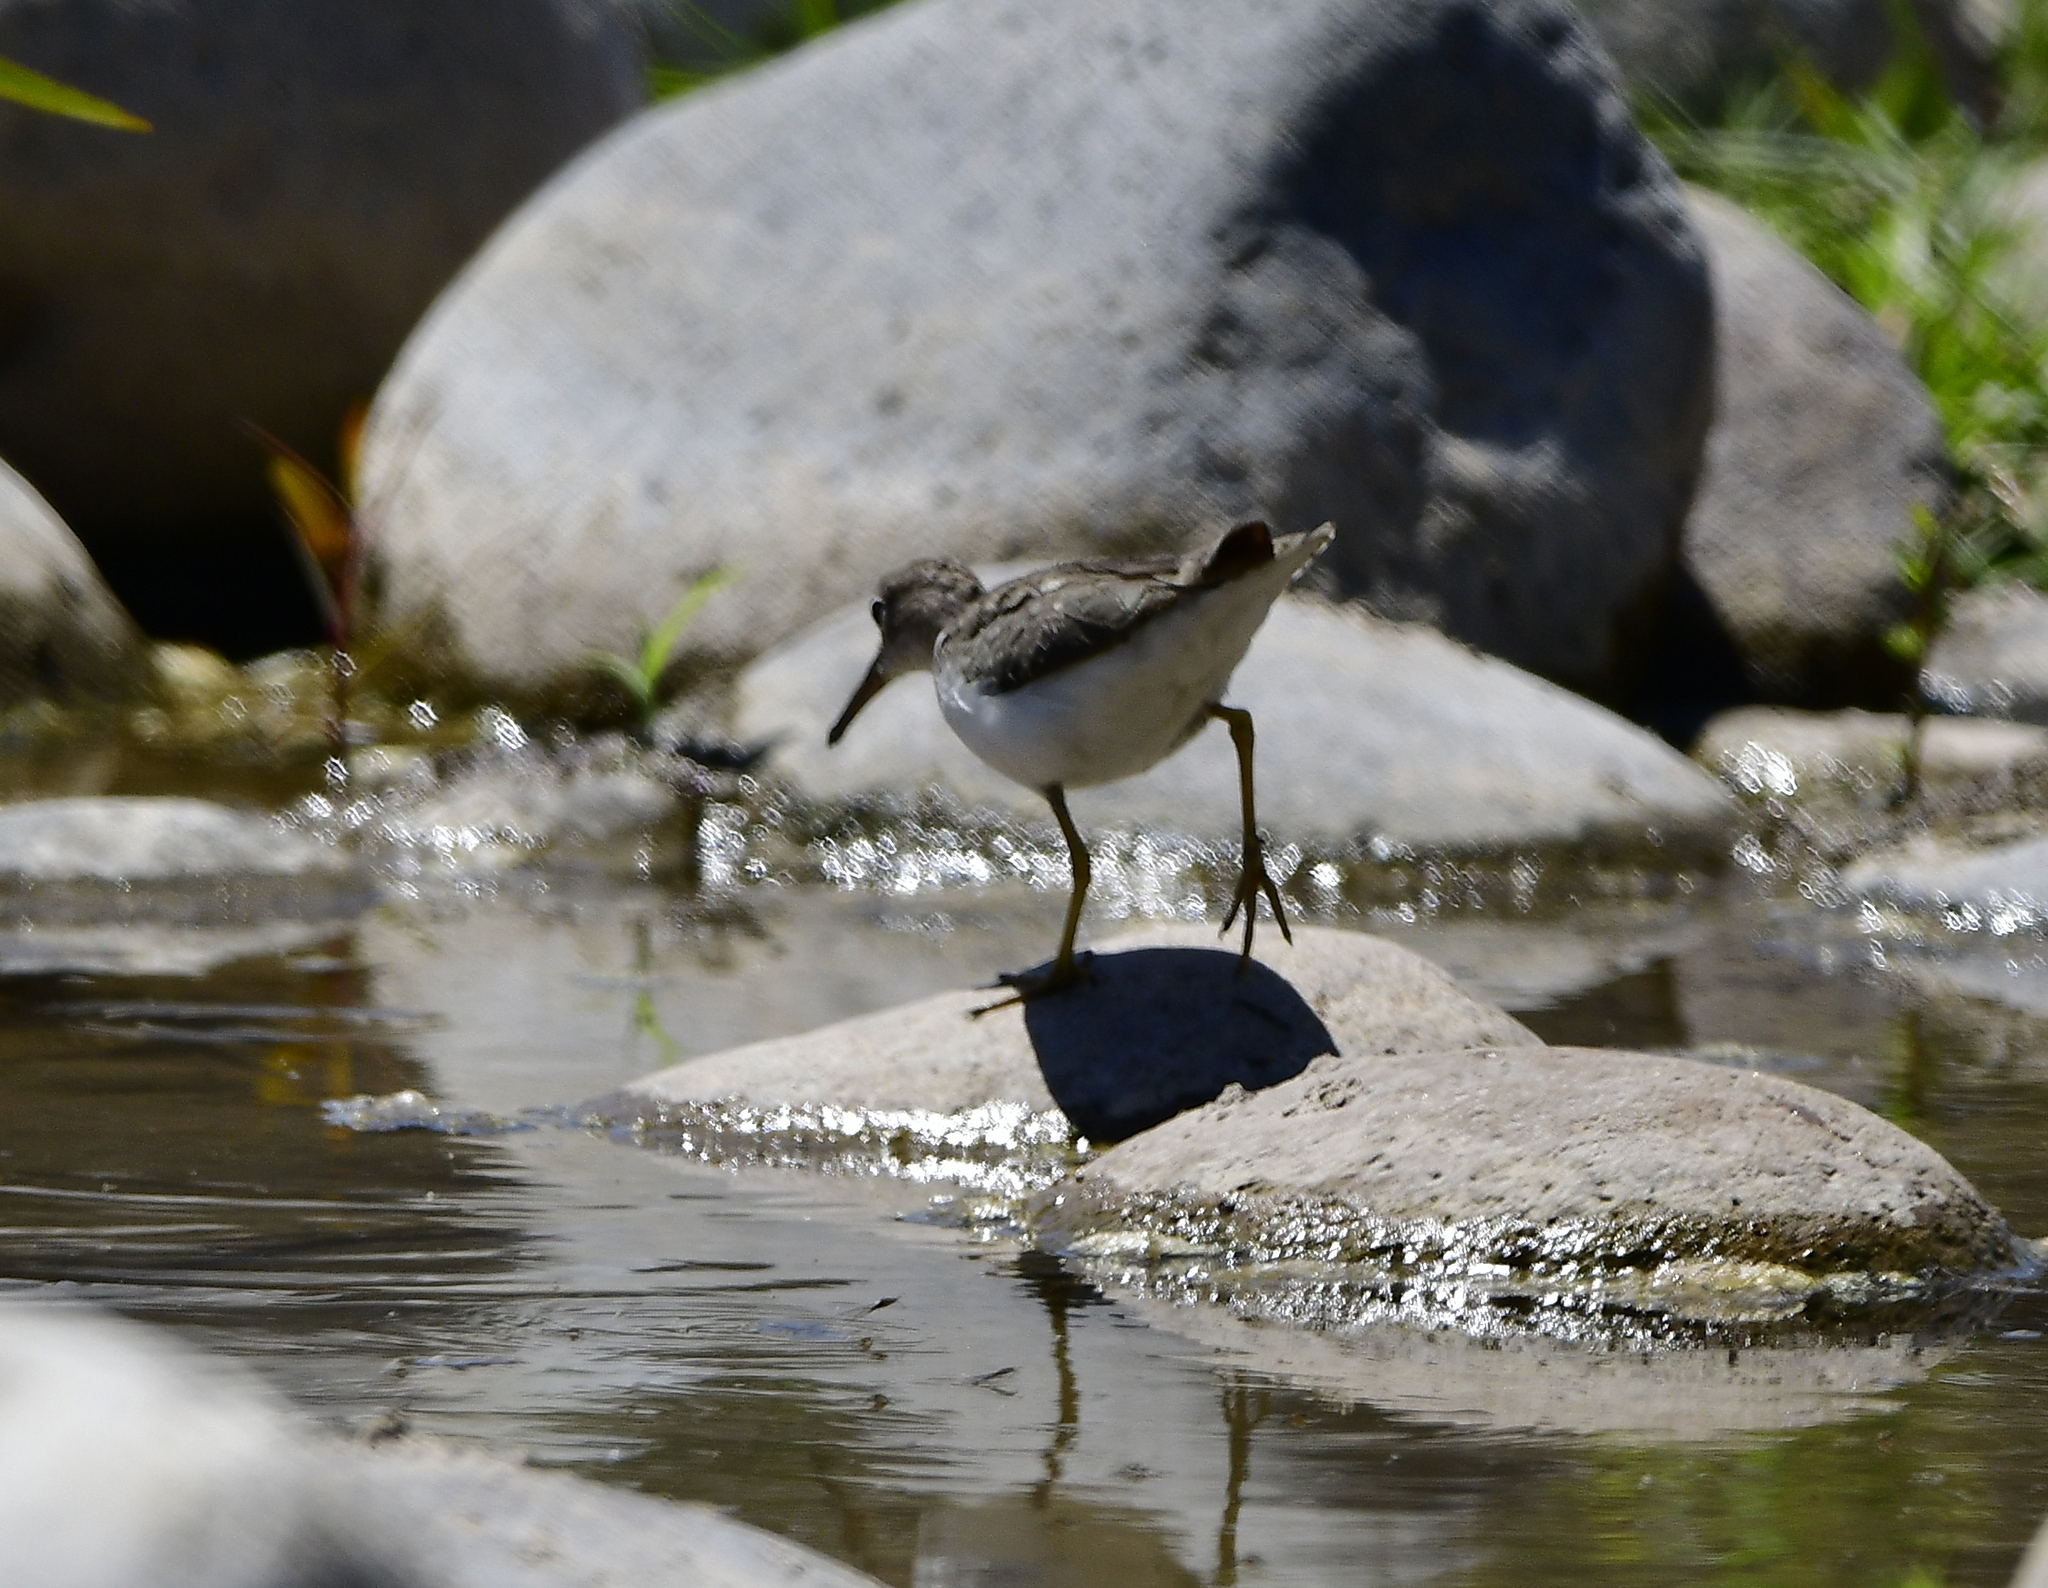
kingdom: Animalia
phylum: Chordata
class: Aves
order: Charadriiformes
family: Scolopacidae
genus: Actitis
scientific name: Actitis macularius
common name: Spotted sandpiper
